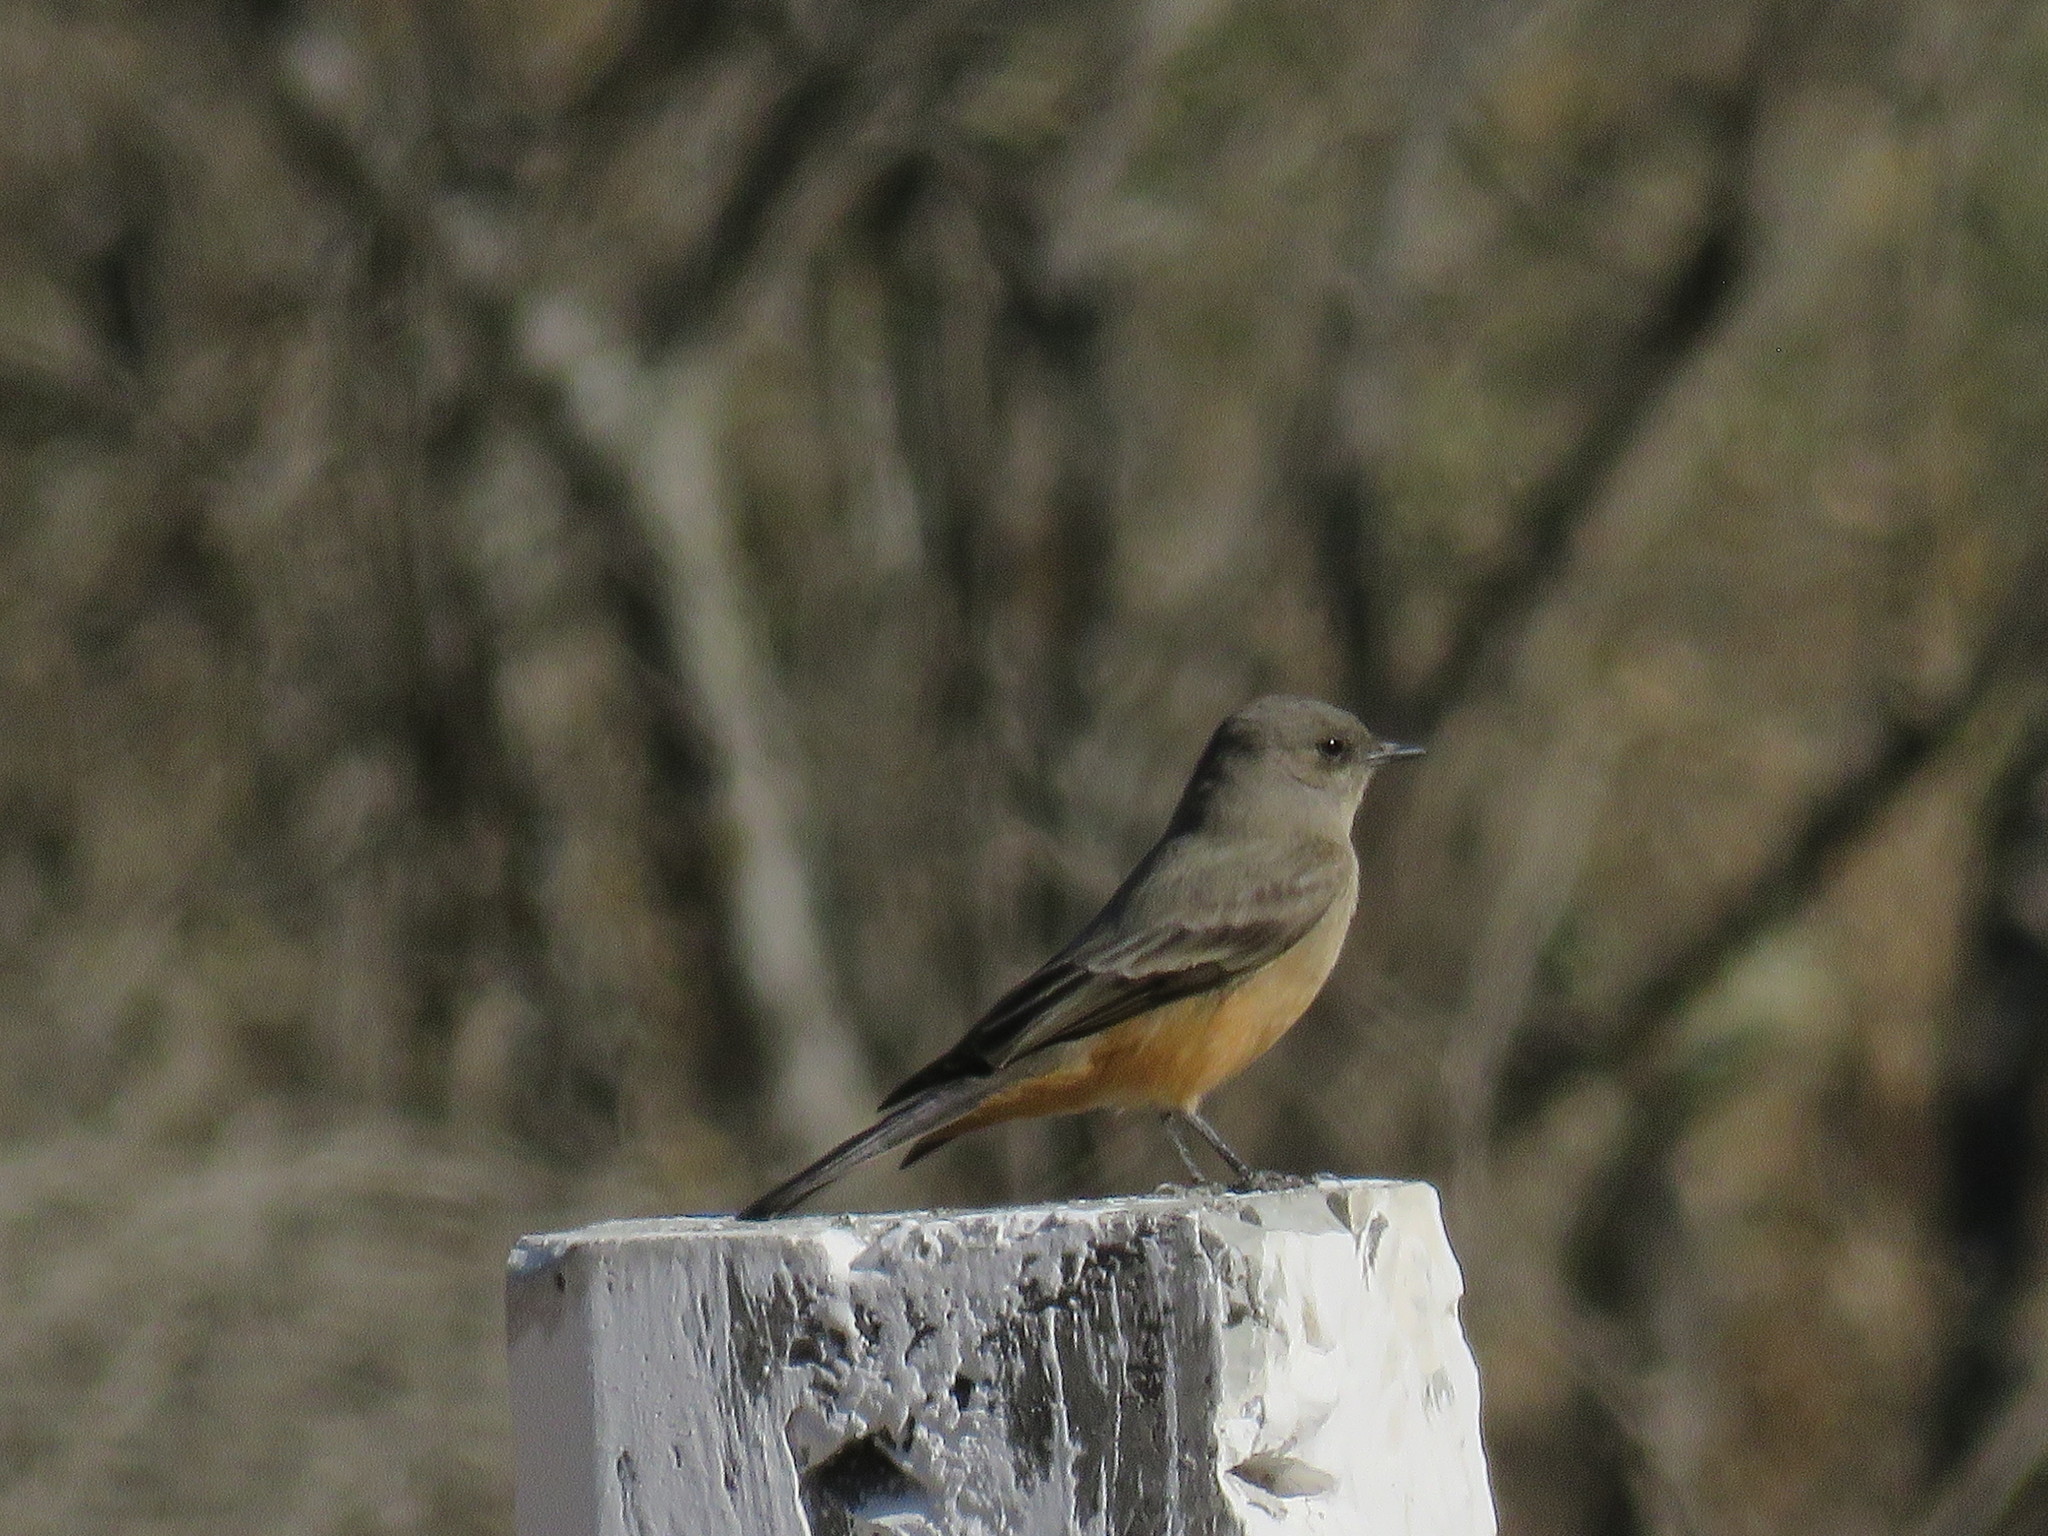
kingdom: Animalia
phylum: Chordata
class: Aves
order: Passeriformes
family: Tyrannidae
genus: Sayornis
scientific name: Sayornis saya
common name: Say's phoebe
